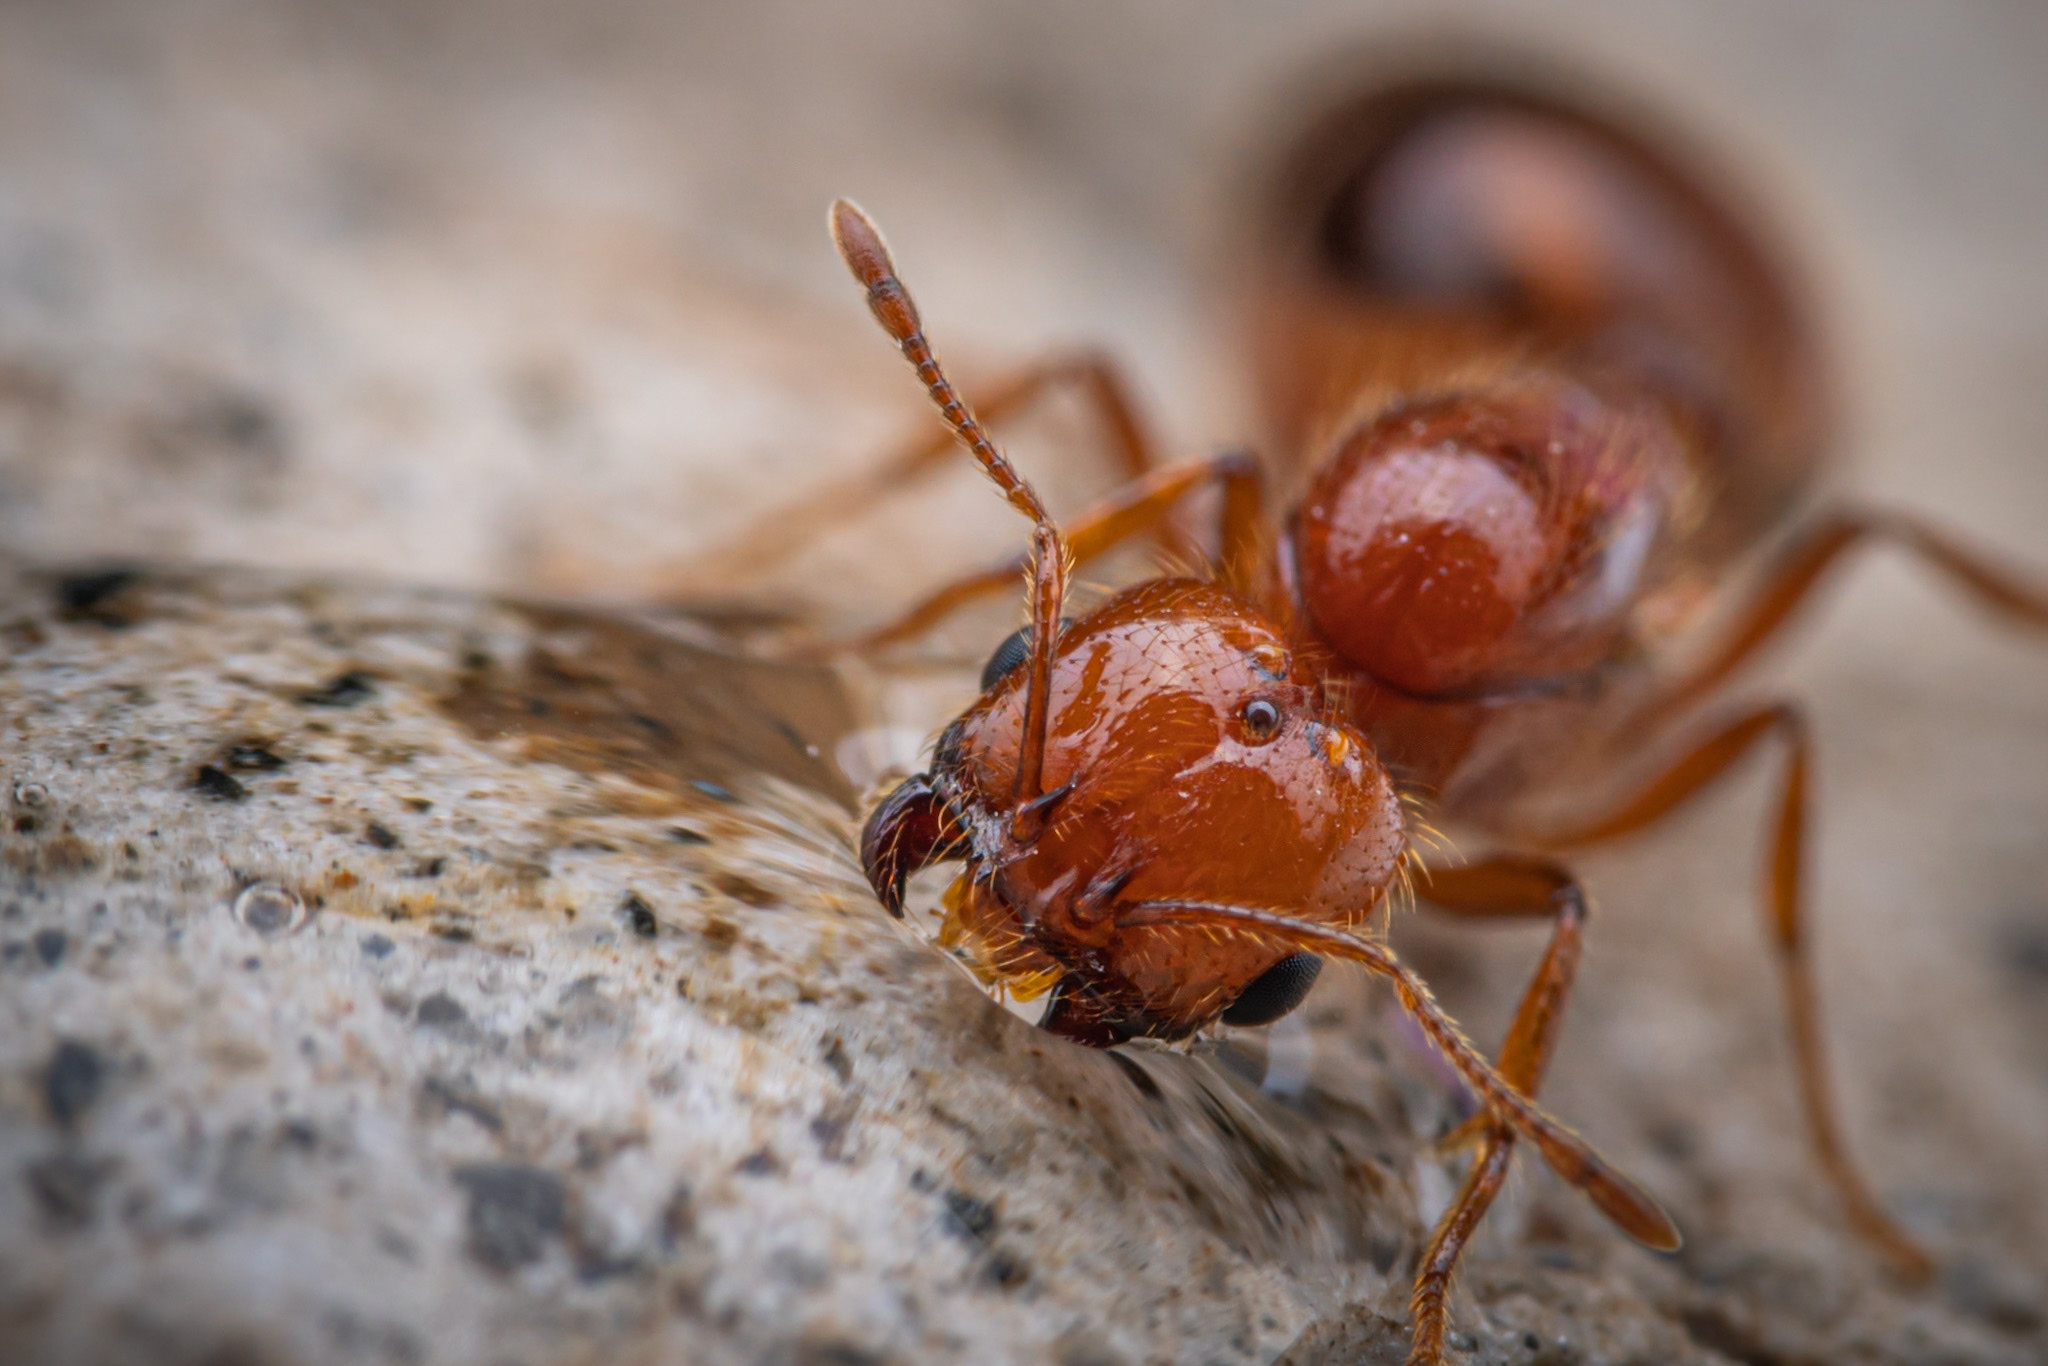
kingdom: Animalia
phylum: Arthropoda
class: Insecta
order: Hymenoptera
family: Formicidae
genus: Solenopsis
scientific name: Solenopsis geminata
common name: Tropical fire ant
